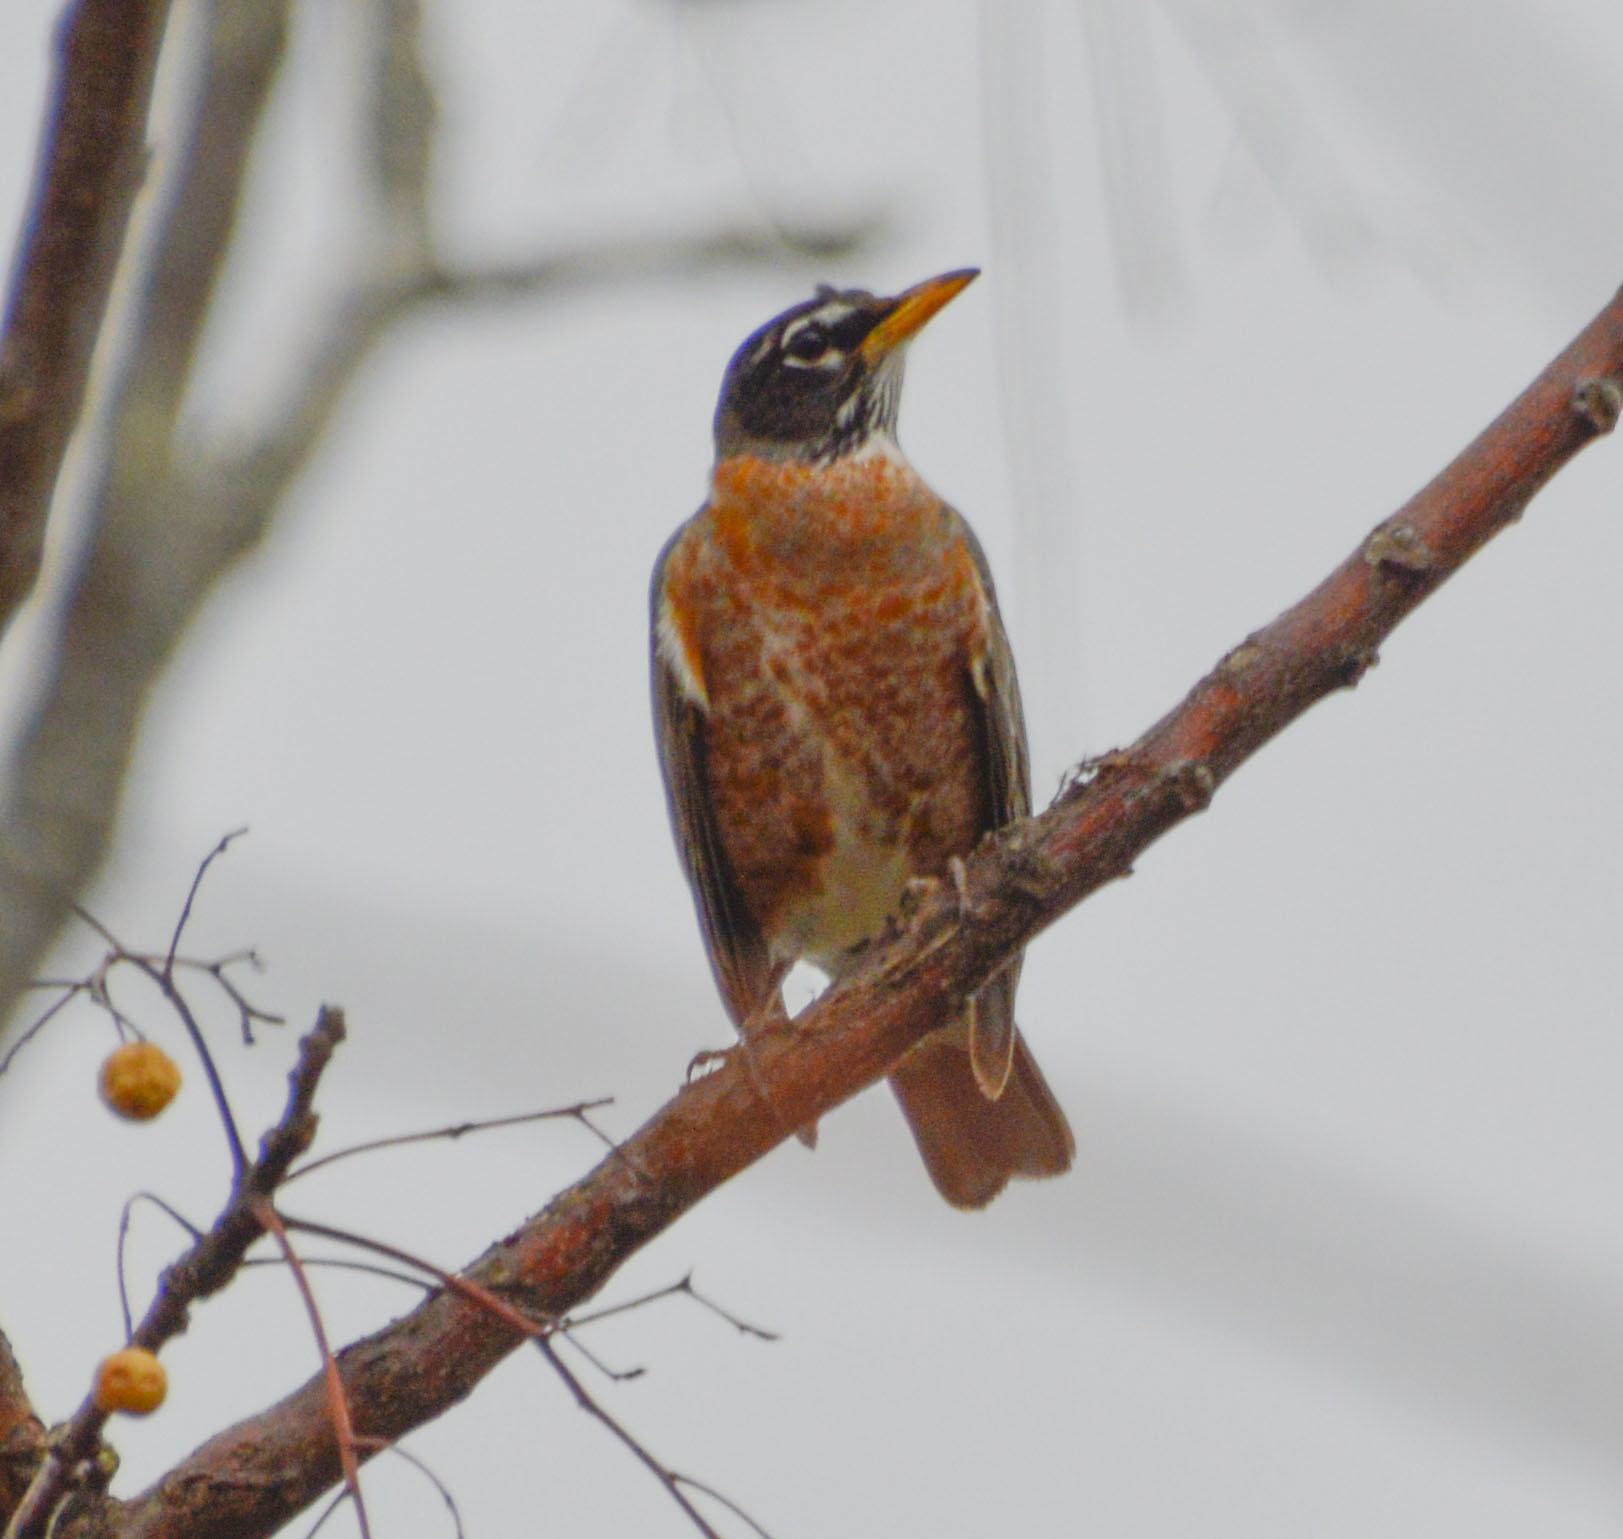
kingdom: Animalia
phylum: Chordata
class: Aves
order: Passeriformes
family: Turdidae
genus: Turdus
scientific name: Turdus migratorius
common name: American robin
